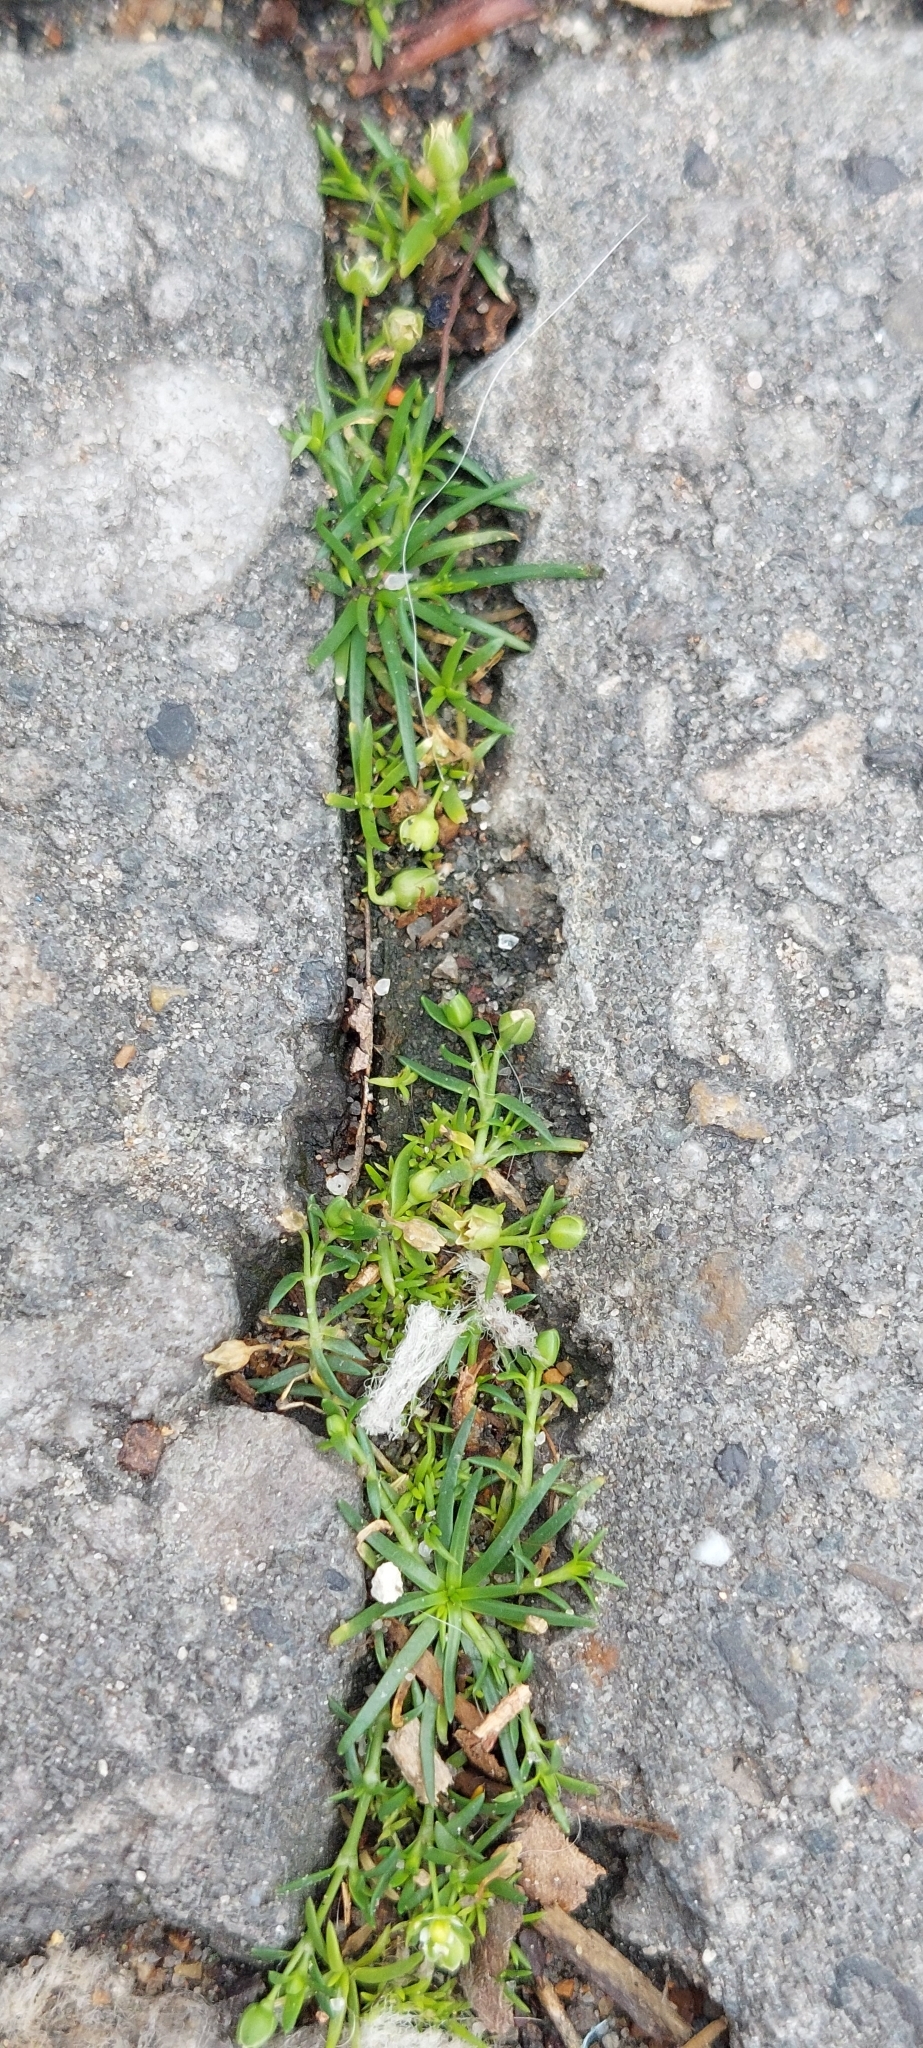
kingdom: Plantae
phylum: Tracheophyta
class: Magnoliopsida
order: Caryophyllales
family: Caryophyllaceae
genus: Sagina
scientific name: Sagina procumbens
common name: Procumbent pearlwort
